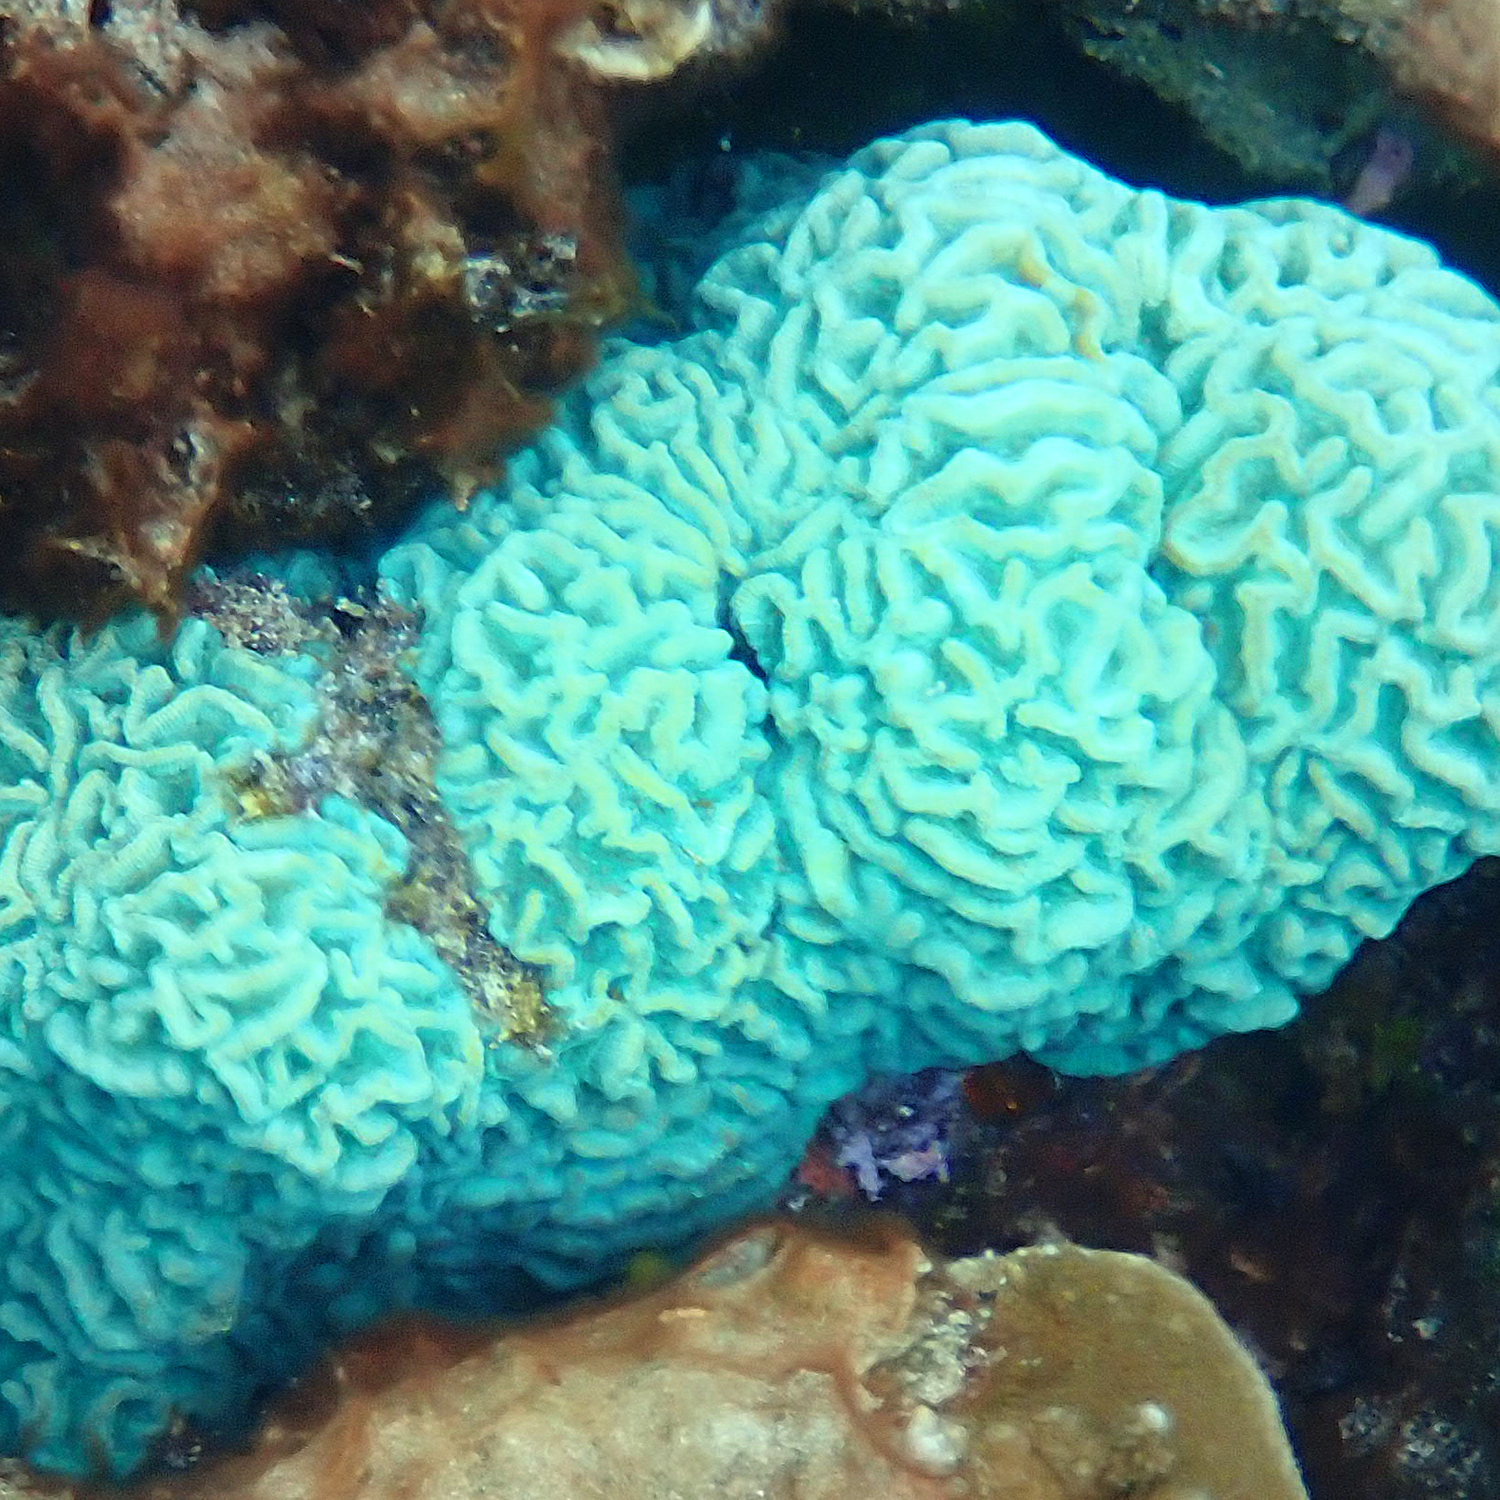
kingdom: Animalia
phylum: Cnidaria
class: Anthozoa
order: Scleractinia
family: Merulinidae
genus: Paragoniastrea
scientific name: Paragoniastrea australensis
